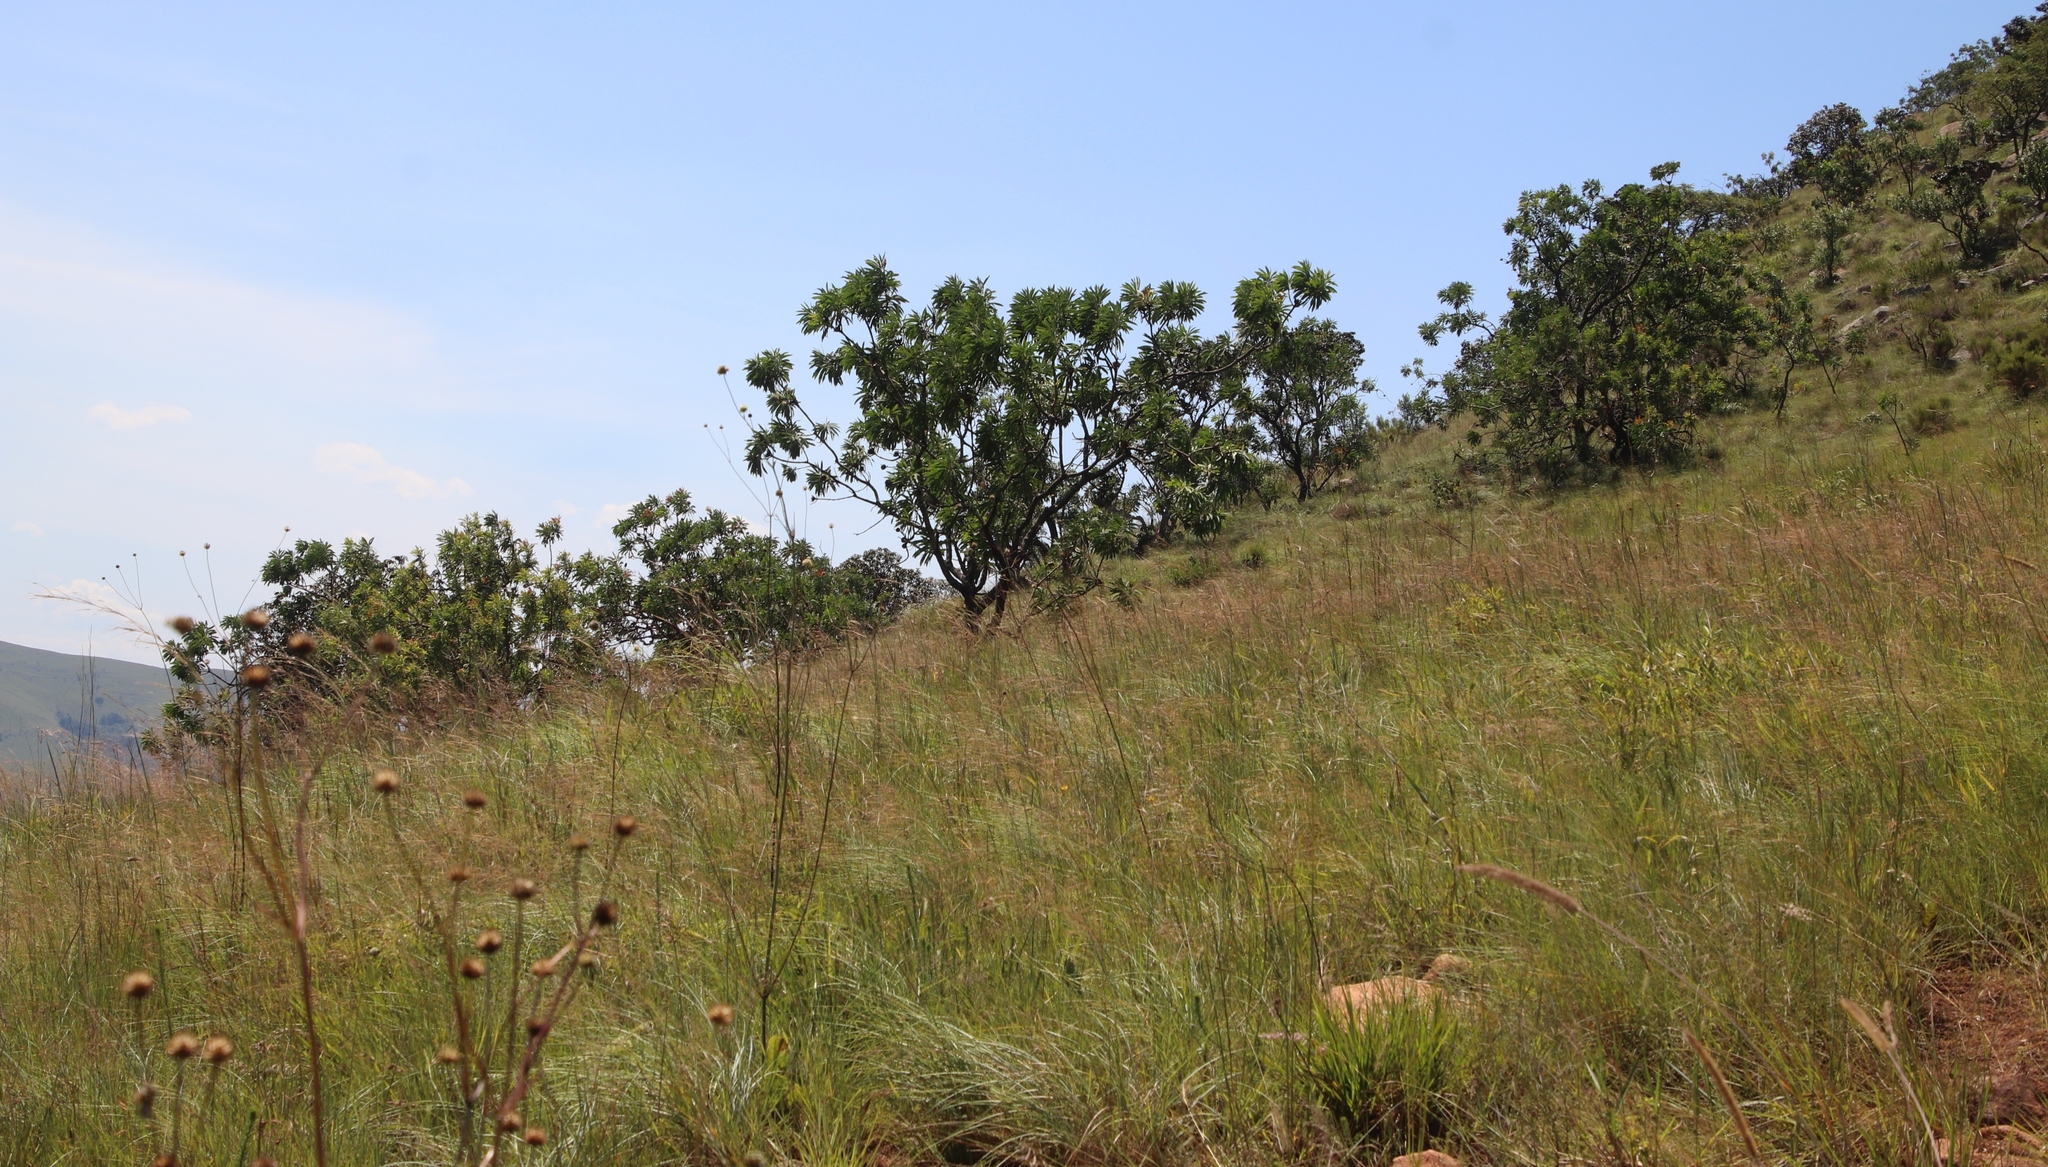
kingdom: Plantae
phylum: Tracheophyta
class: Magnoliopsida
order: Proteales
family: Proteaceae
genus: Protea
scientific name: Protea caffra
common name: Common sugarbush
